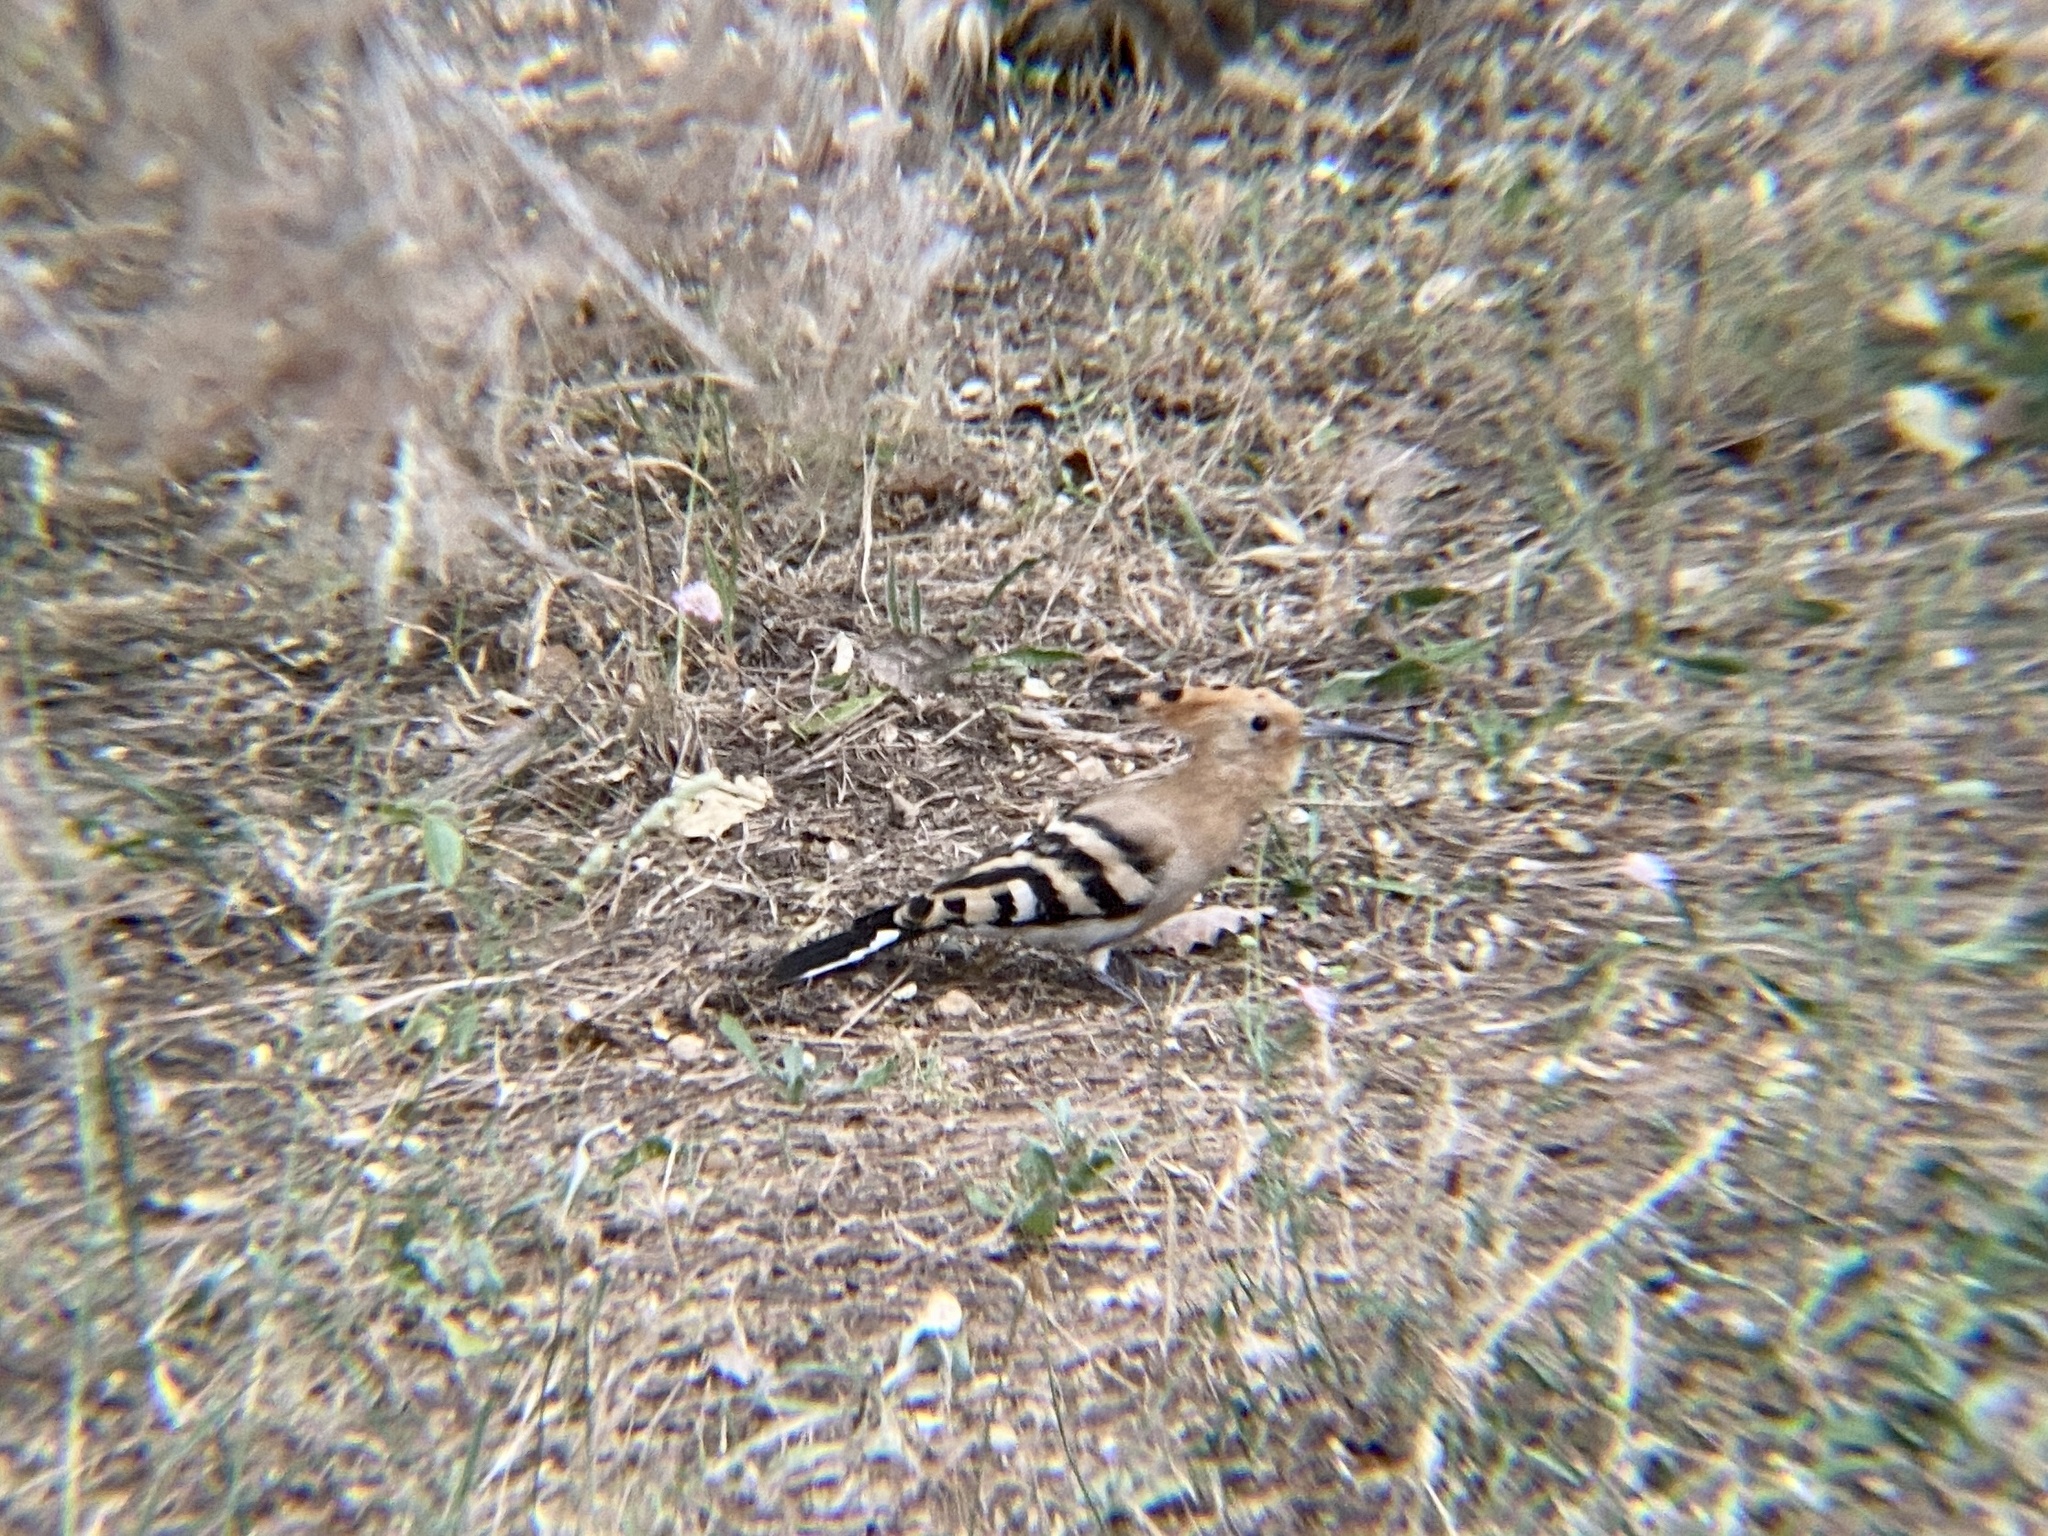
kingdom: Animalia
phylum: Chordata
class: Aves
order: Bucerotiformes
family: Upupidae
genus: Upupa
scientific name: Upupa epops
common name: Eurasian hoopoe
